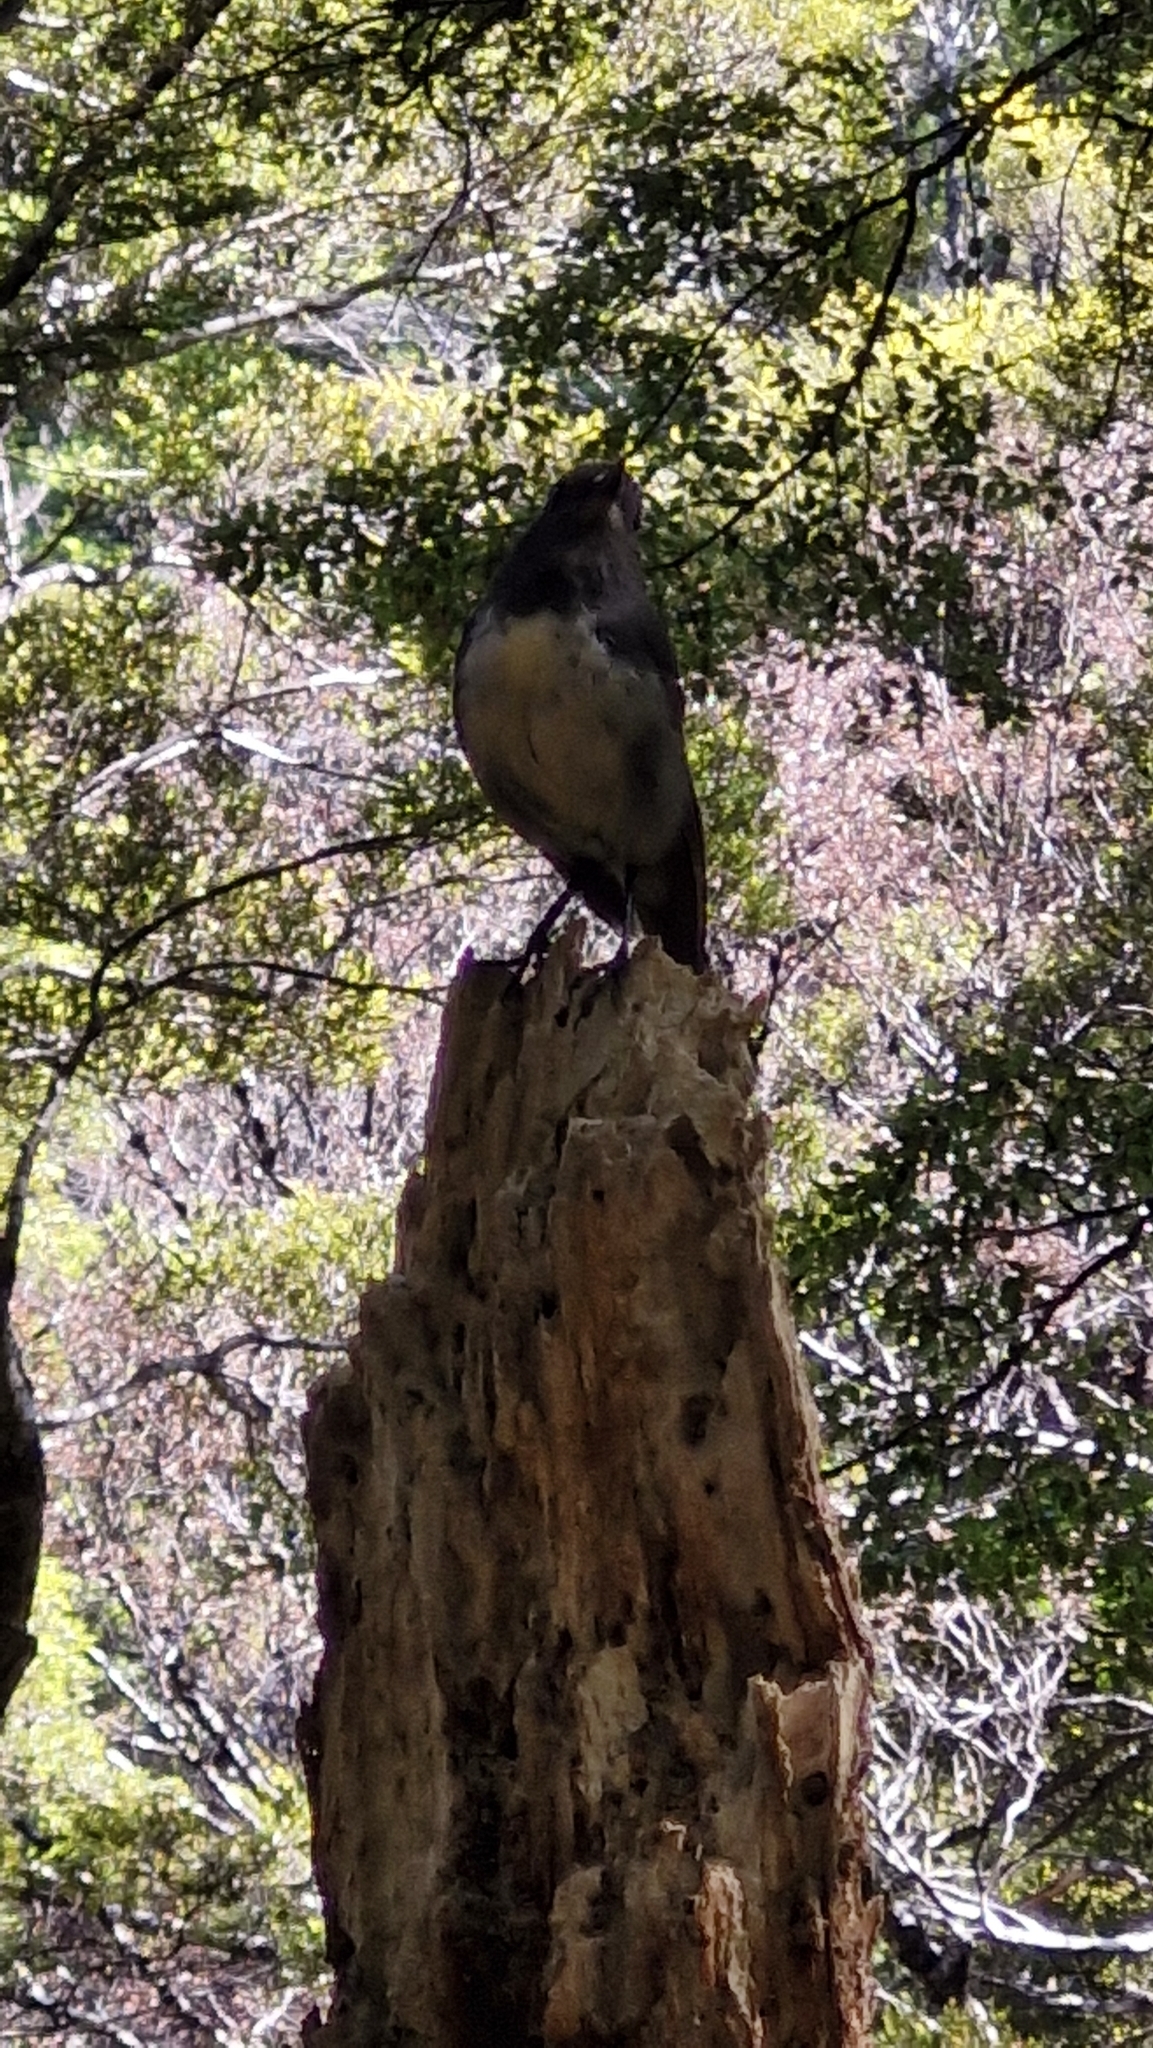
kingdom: Animalia
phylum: Chordata
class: Aves
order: Passeriformes
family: Petroicidae
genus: Petroica
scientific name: Petroica australis
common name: New zealand robin
